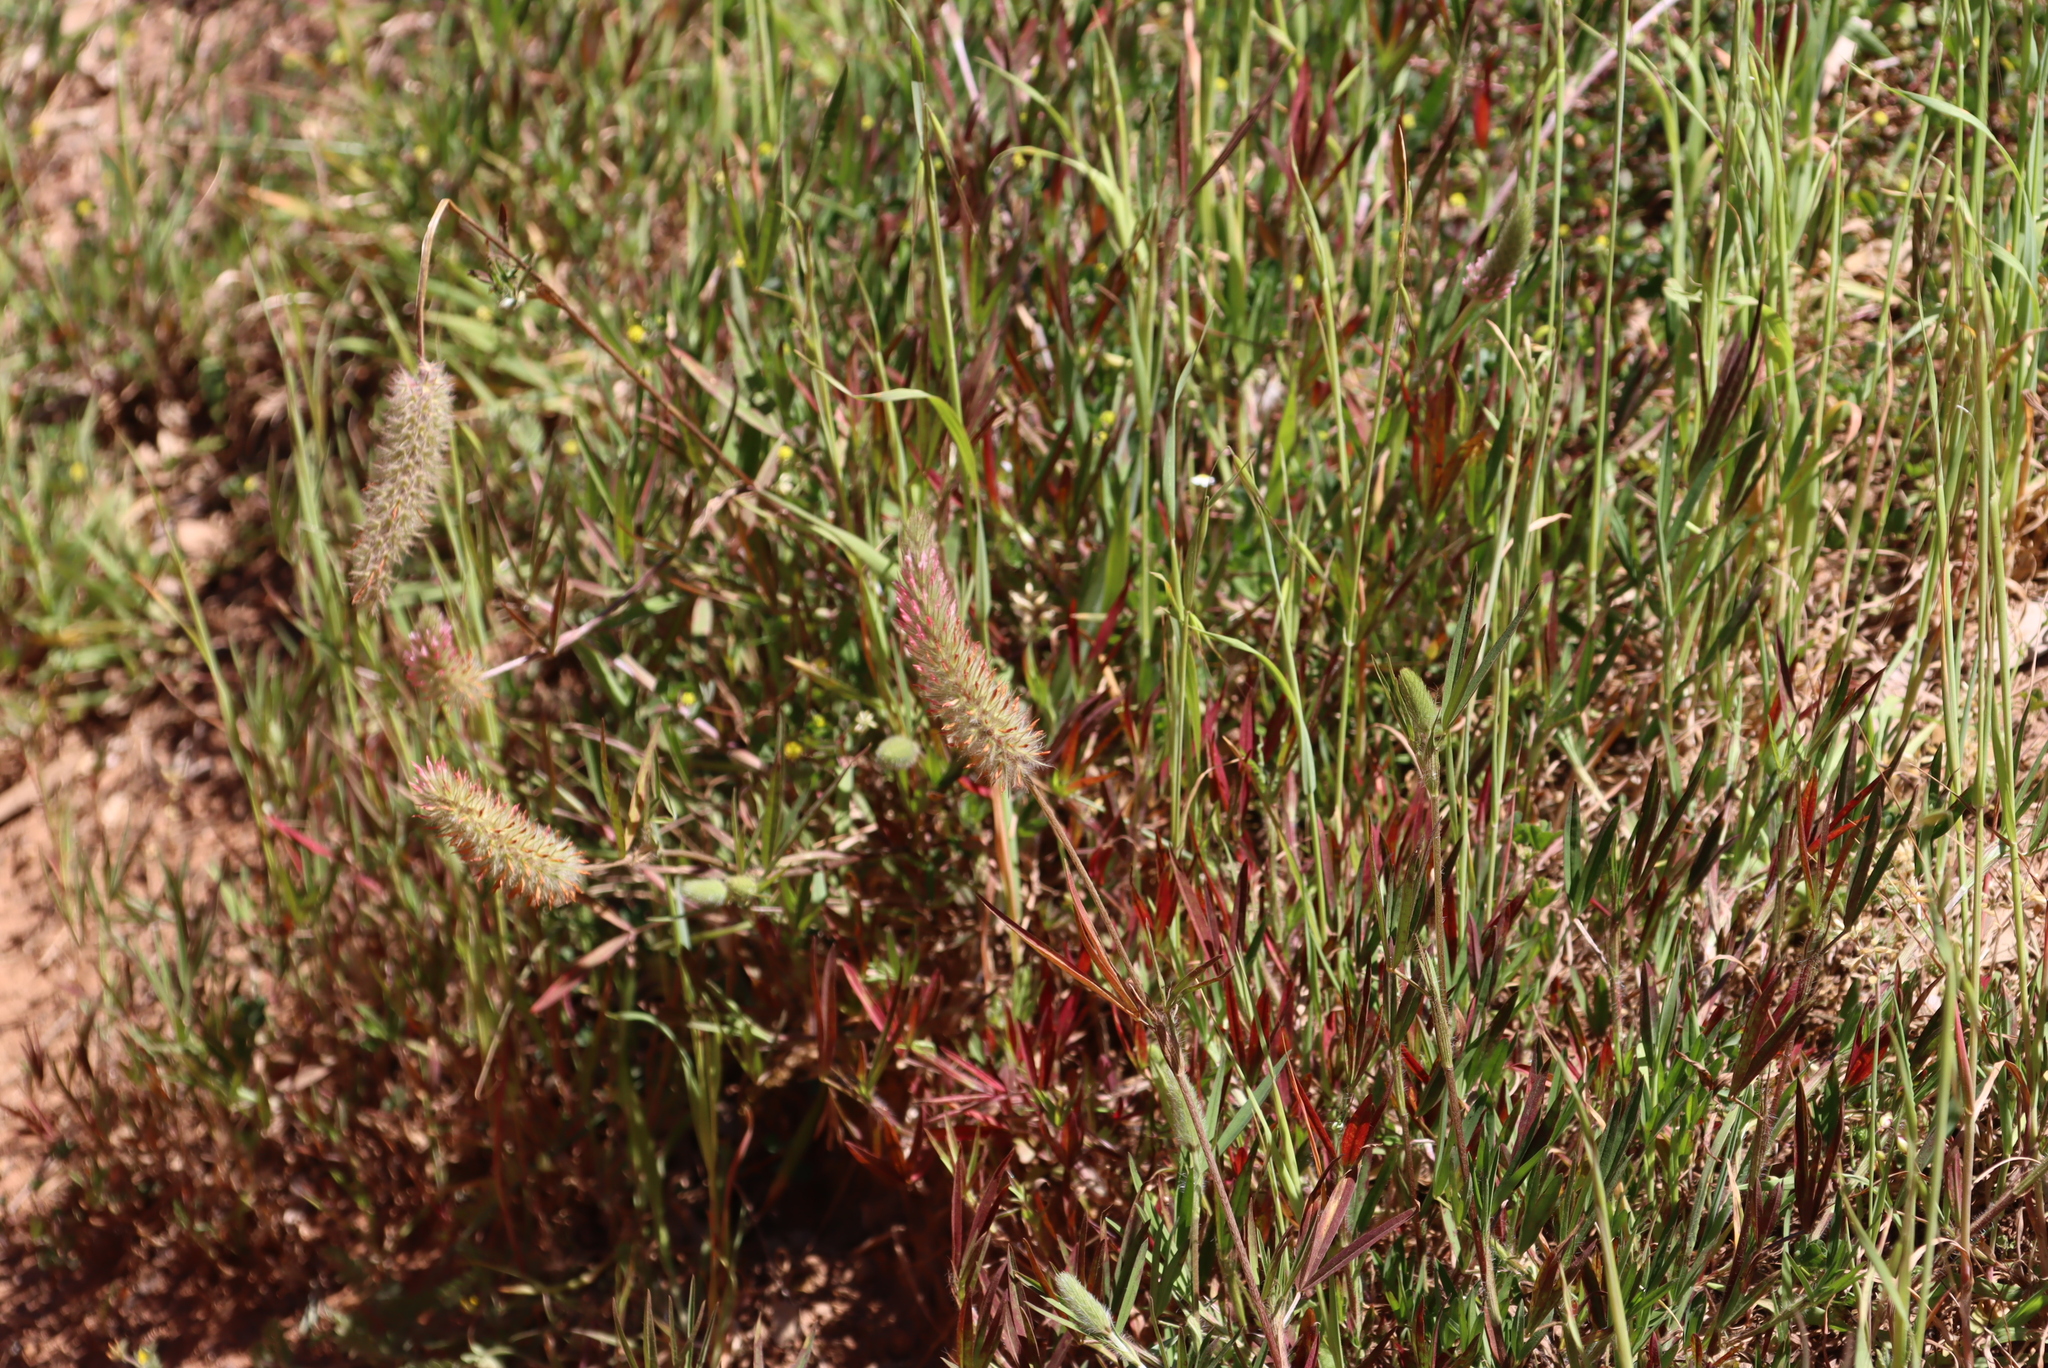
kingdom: Plantae
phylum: Tracheophyta
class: Magnoliopsida
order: Fabales
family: Fabaceae
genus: Trifolium
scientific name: Trifolium angustifolium
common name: Narrow clover
